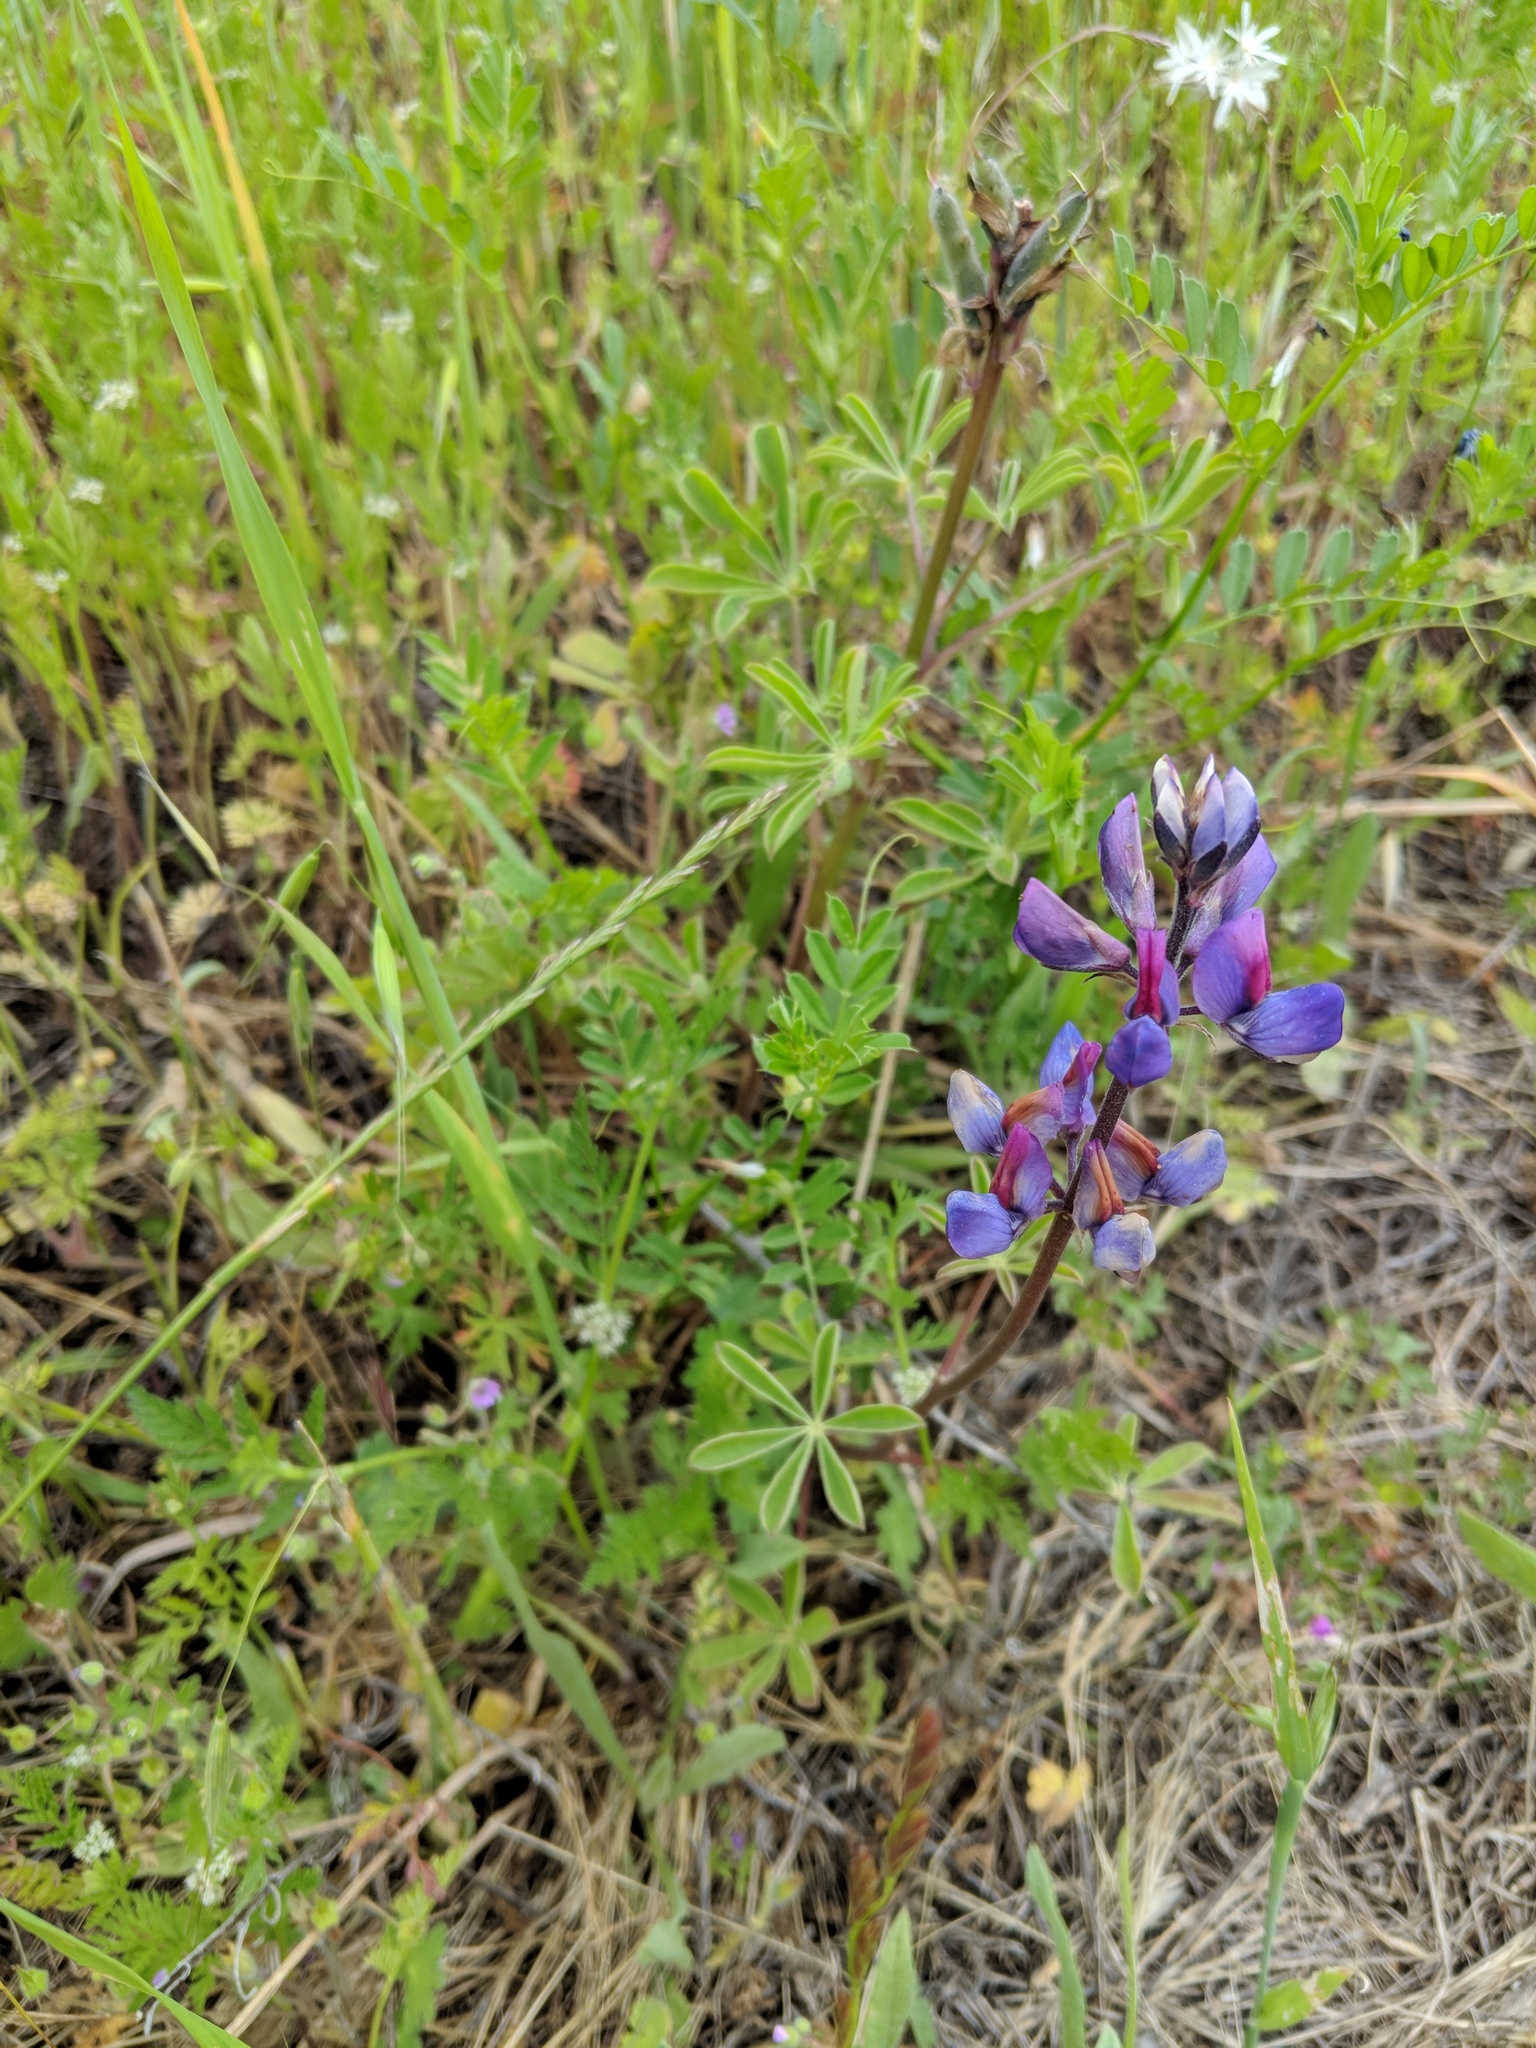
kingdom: Plantae
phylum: Tracheophyta
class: Magnoliopsida
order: Fabales
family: Fabaceae
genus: Lupinus
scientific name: Lupinus bicolor
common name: Miniature lupine
